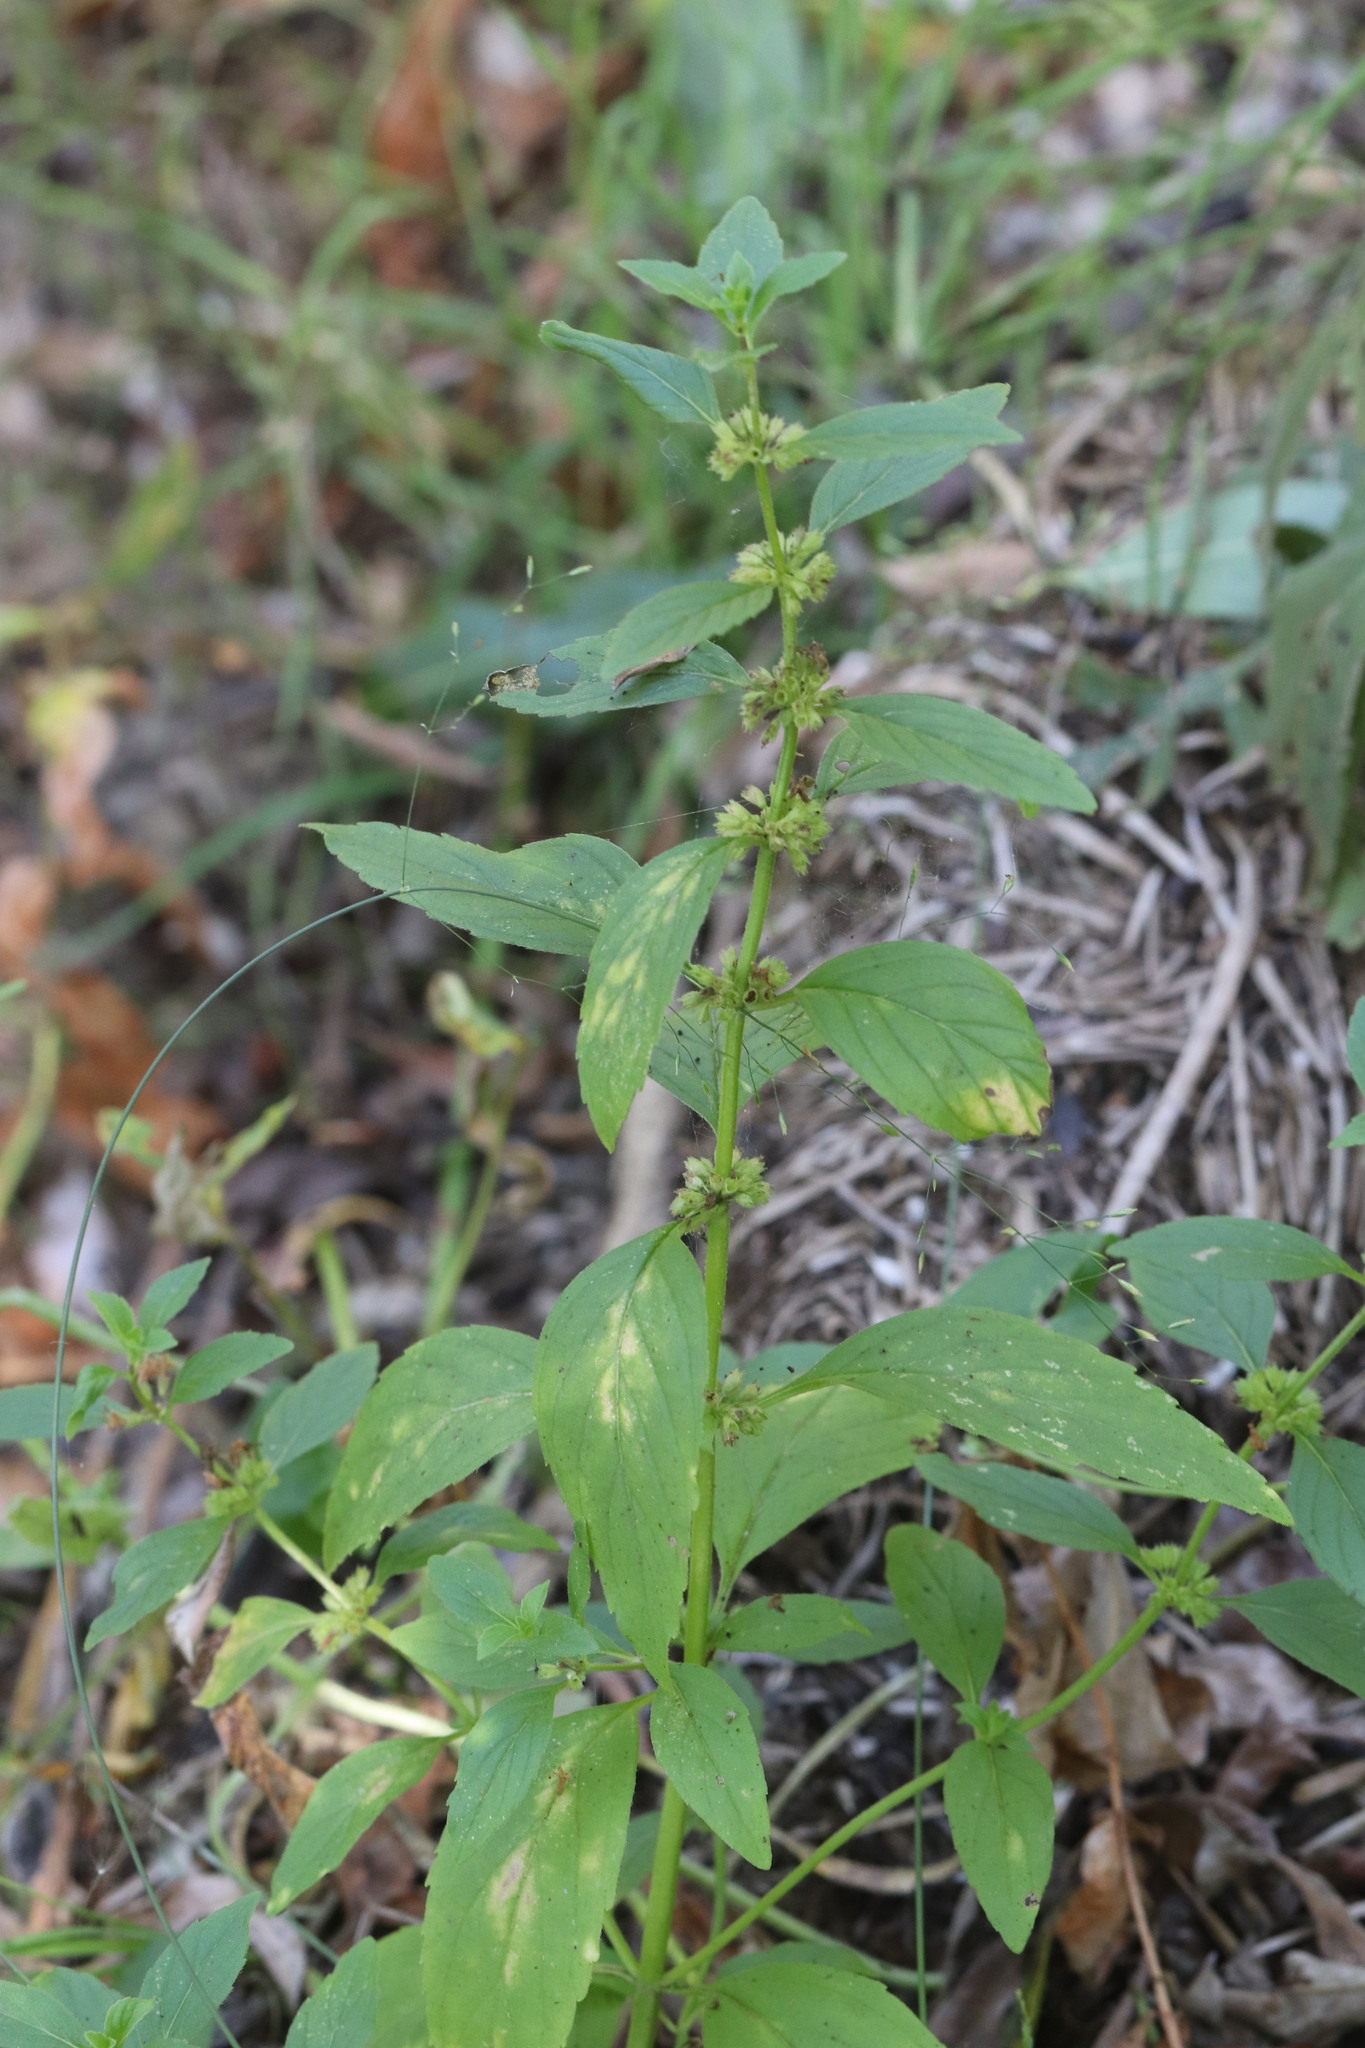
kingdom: Plantae
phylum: Tracheophyta
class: Magnoliopsida
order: Lamiales
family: Lamiaceae
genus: Mentha
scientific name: Mentha arvensis
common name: Corn mint
